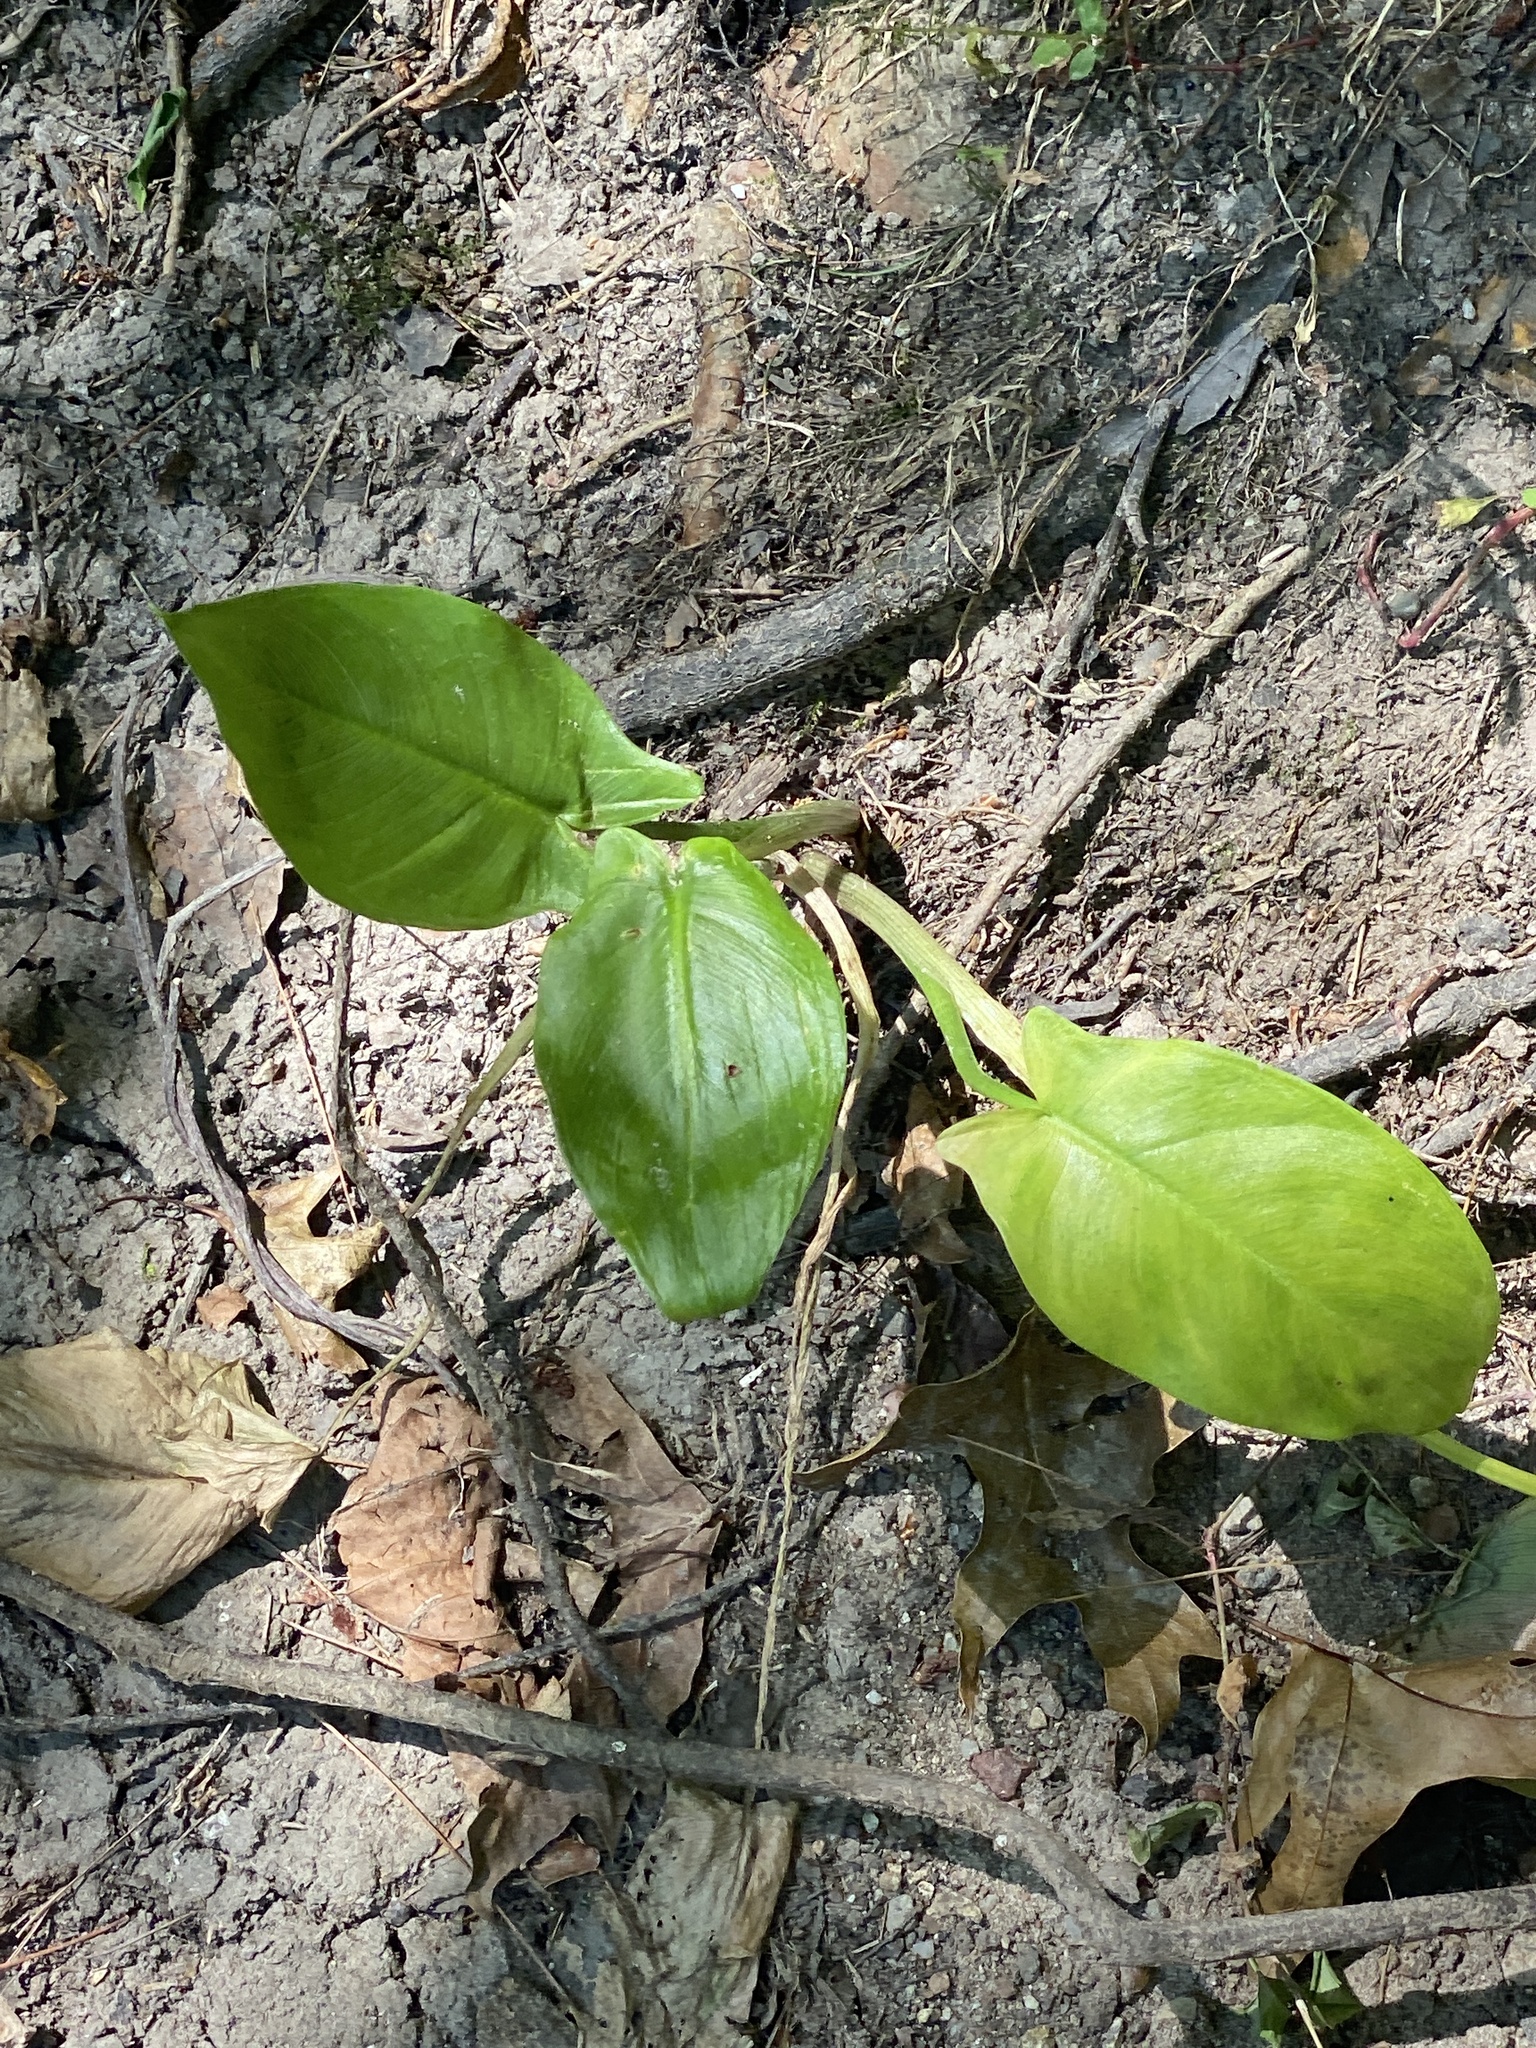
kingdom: Plantae
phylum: Tracheophyta
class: Liliopsida
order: Alismatales
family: Araceae
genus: Peltandra
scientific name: Peltandra virginica
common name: Arrow arum
